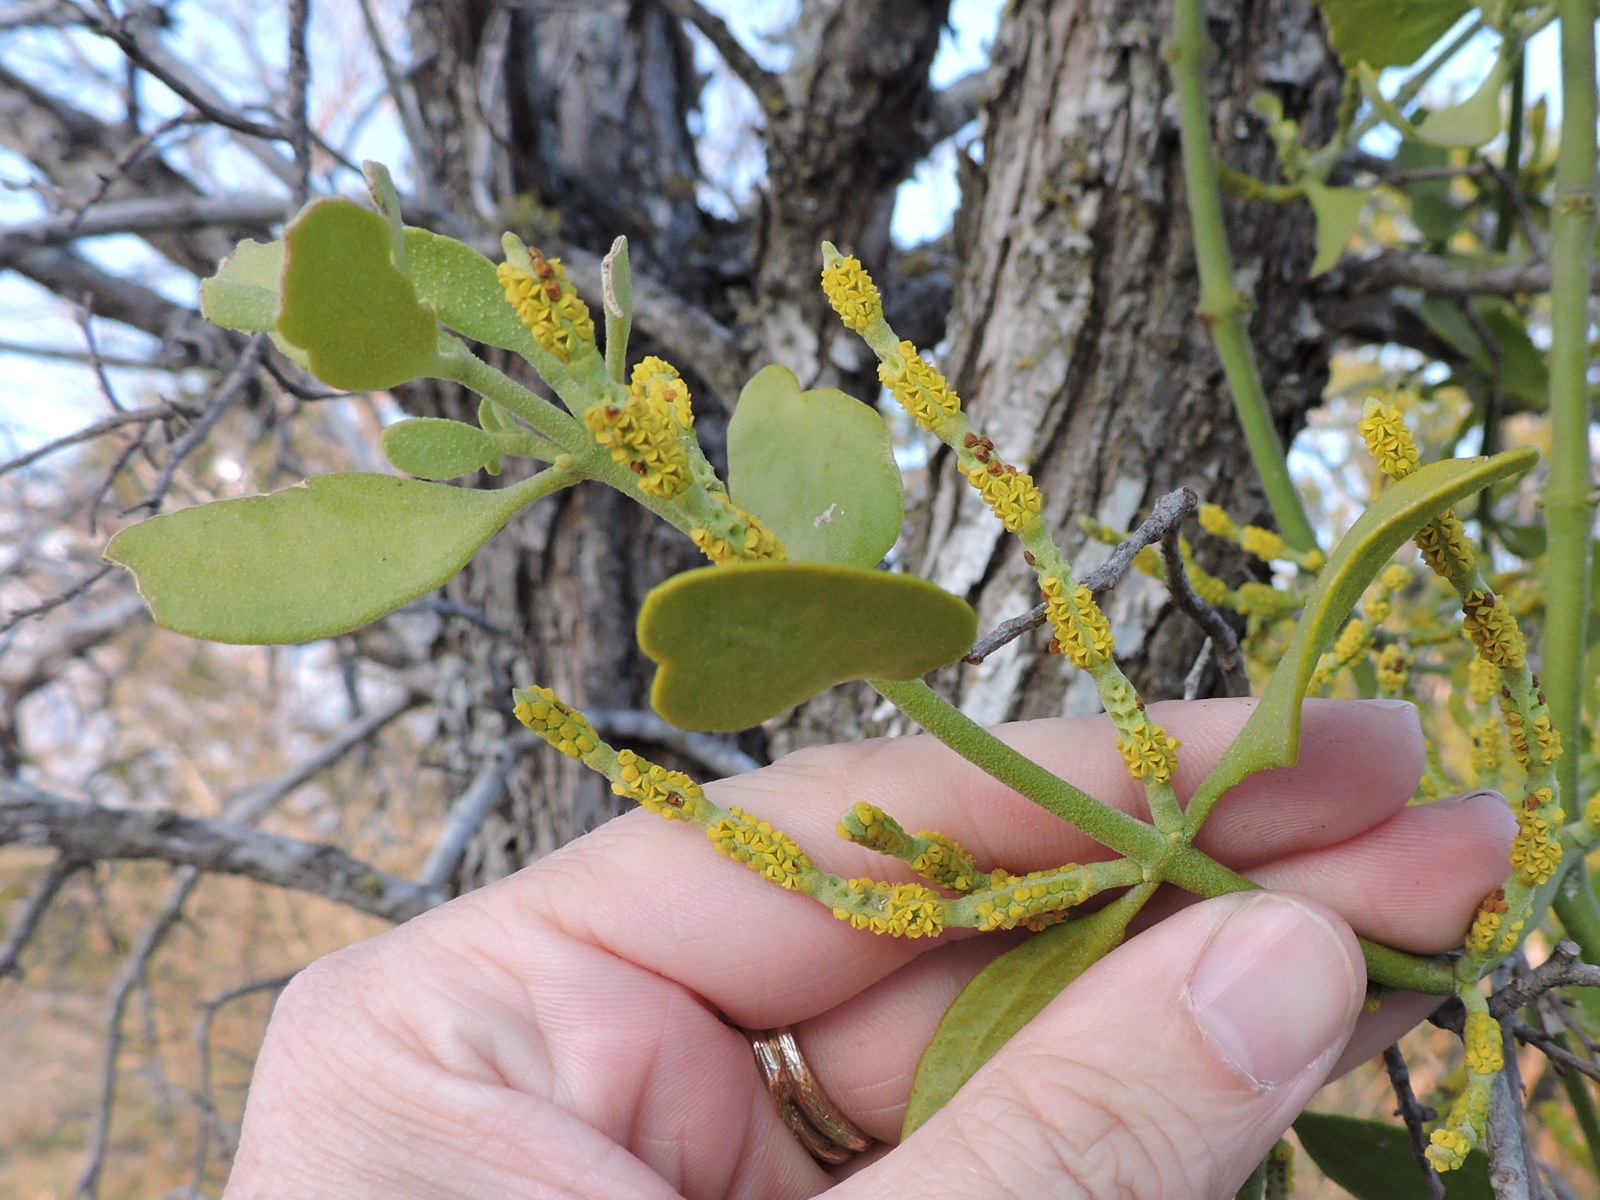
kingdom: Plantae
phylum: Tracheophyta
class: Magnoliopsida
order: Santalales
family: Viscaceae
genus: Phoradendron
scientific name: Phoradendron leucarpum
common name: Pacific mistletoe
